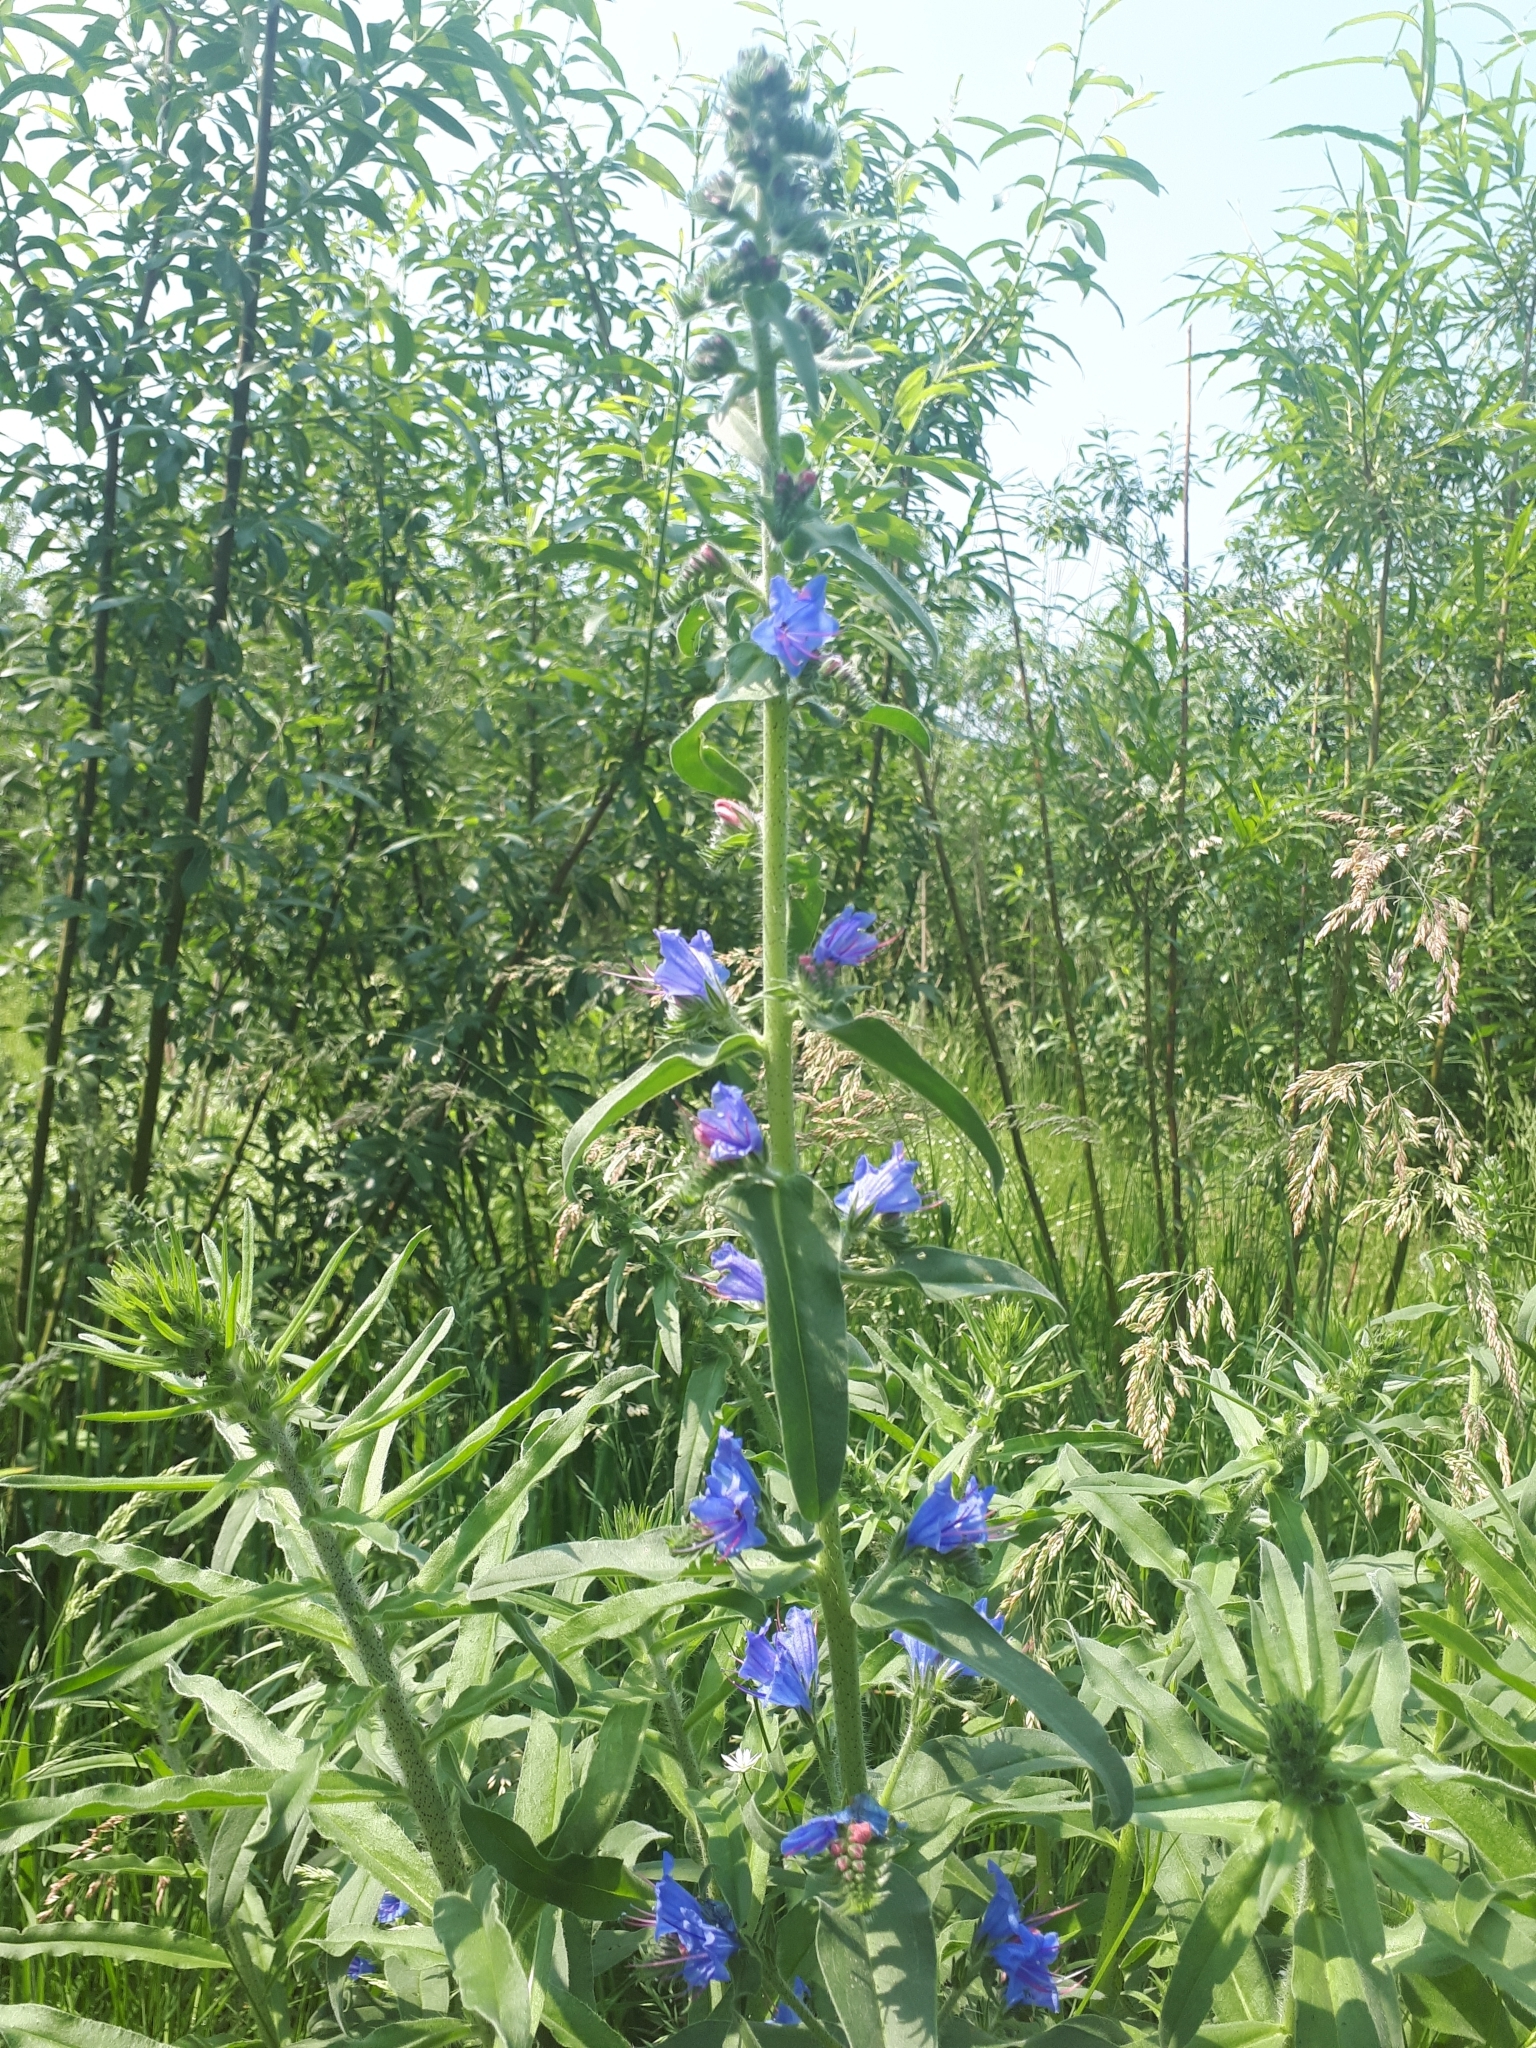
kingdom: Plantae
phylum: Tracheophyta
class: Magnoliopsida
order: Boraginales
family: Boraginaceae
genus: Echium
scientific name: Echium vulgare
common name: Common viper's bugloss
